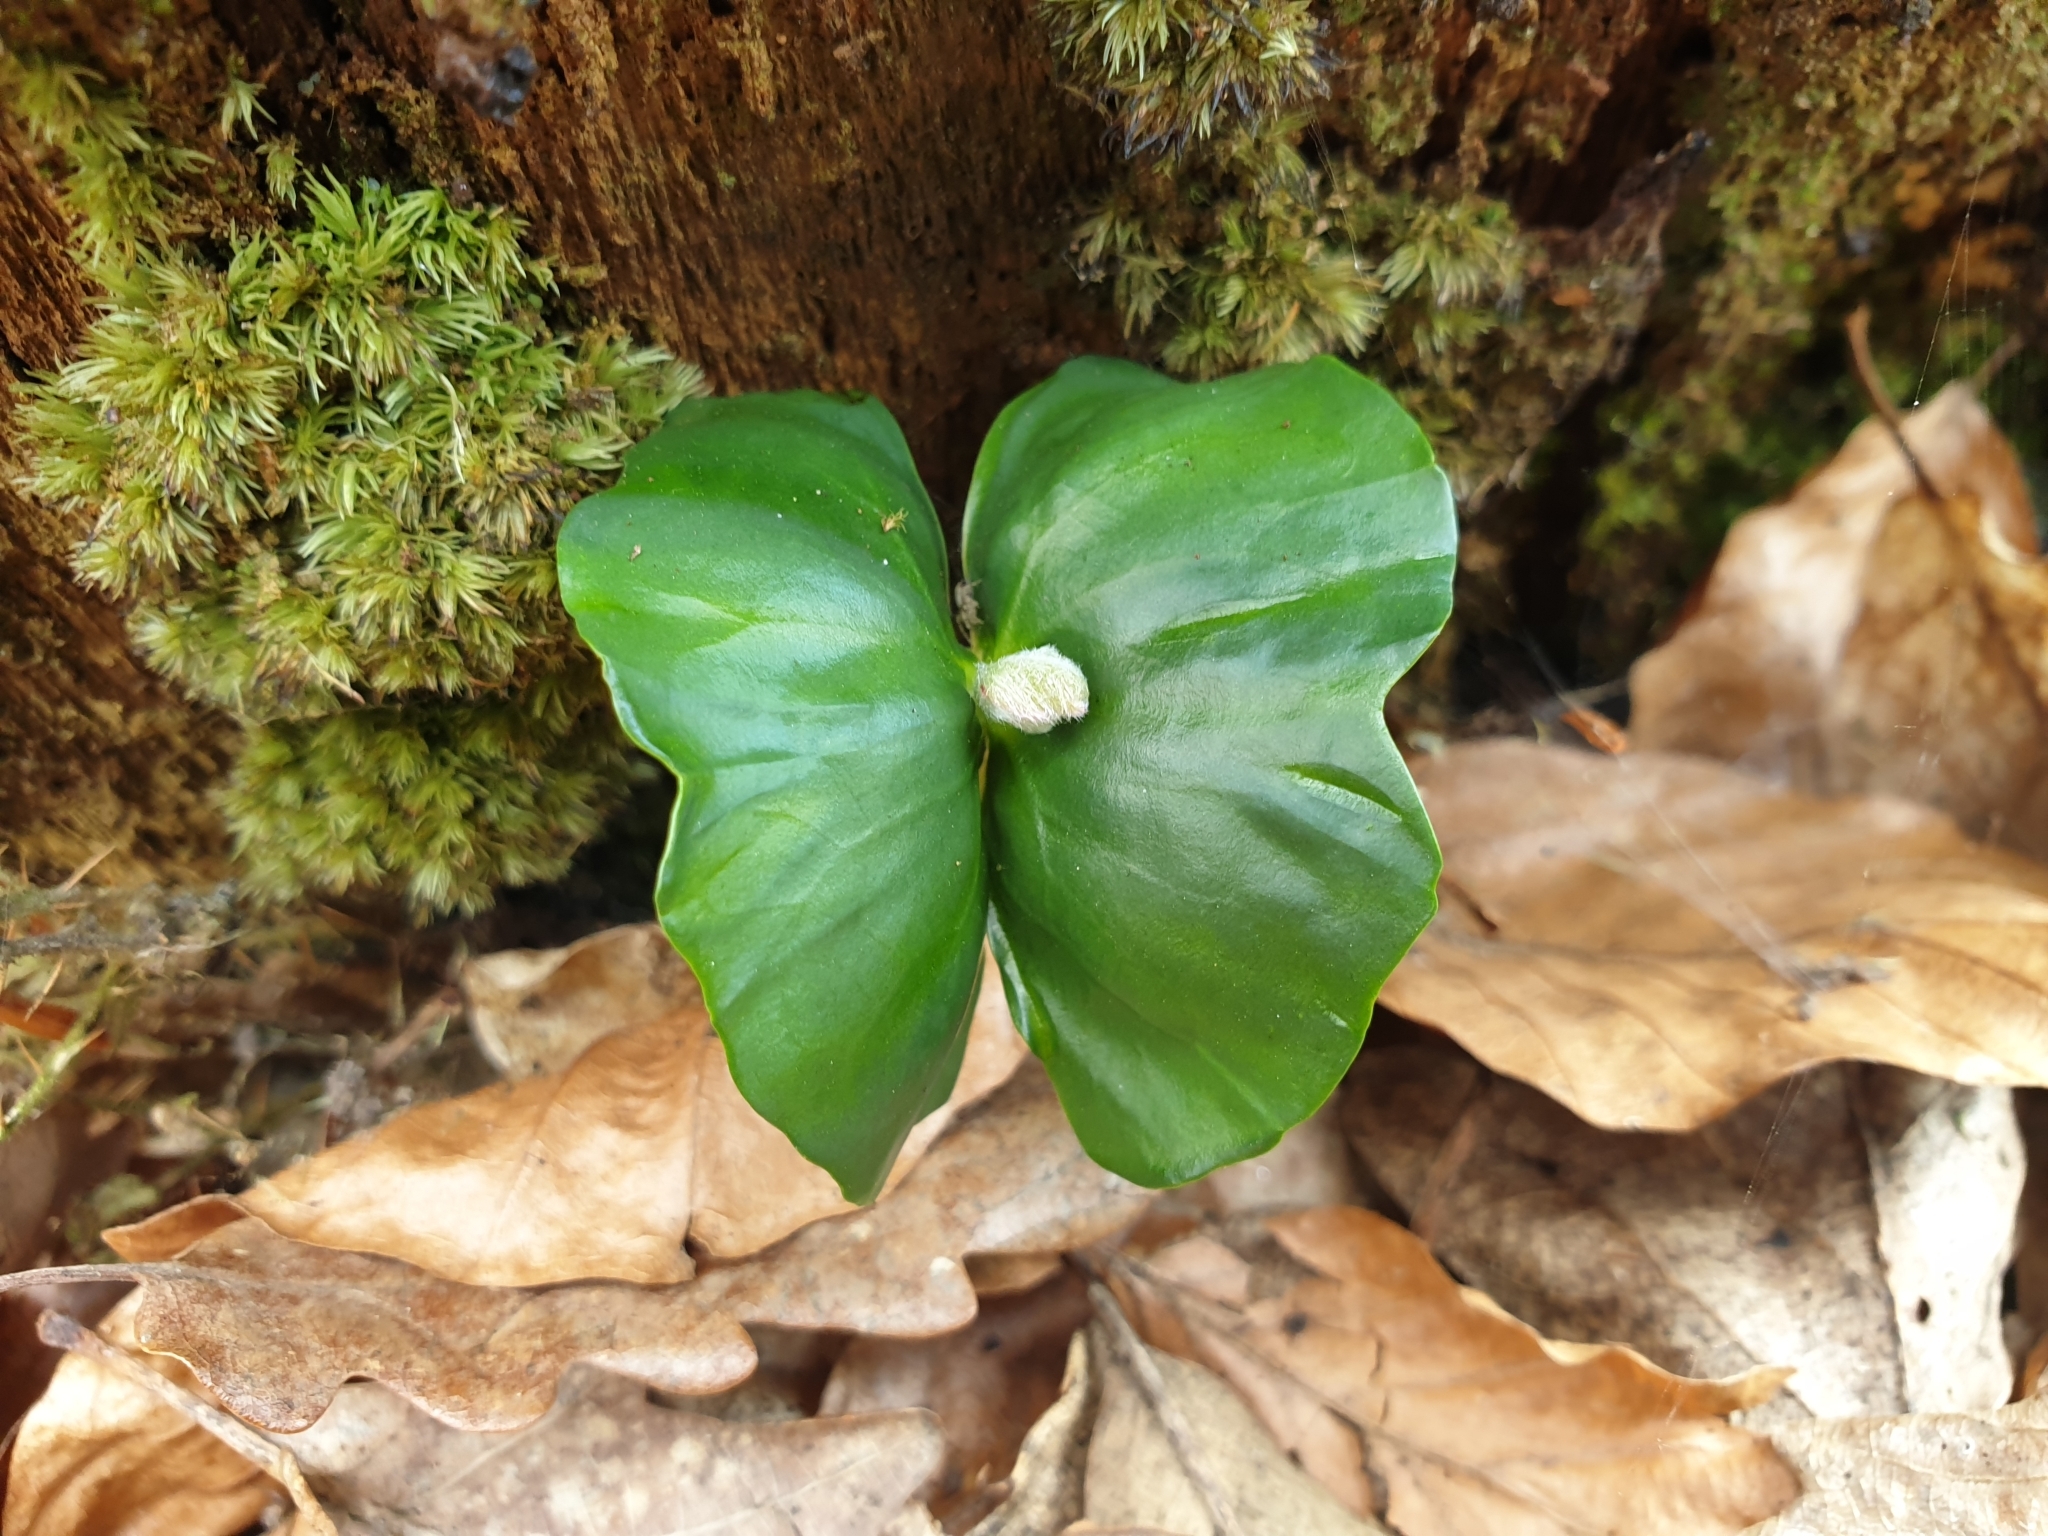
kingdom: Plantae
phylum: Tracheophyta
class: Magnoliopsida
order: Fagales
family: Fagaceae
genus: Fagus
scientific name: Fagus sylvatica
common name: Beech
